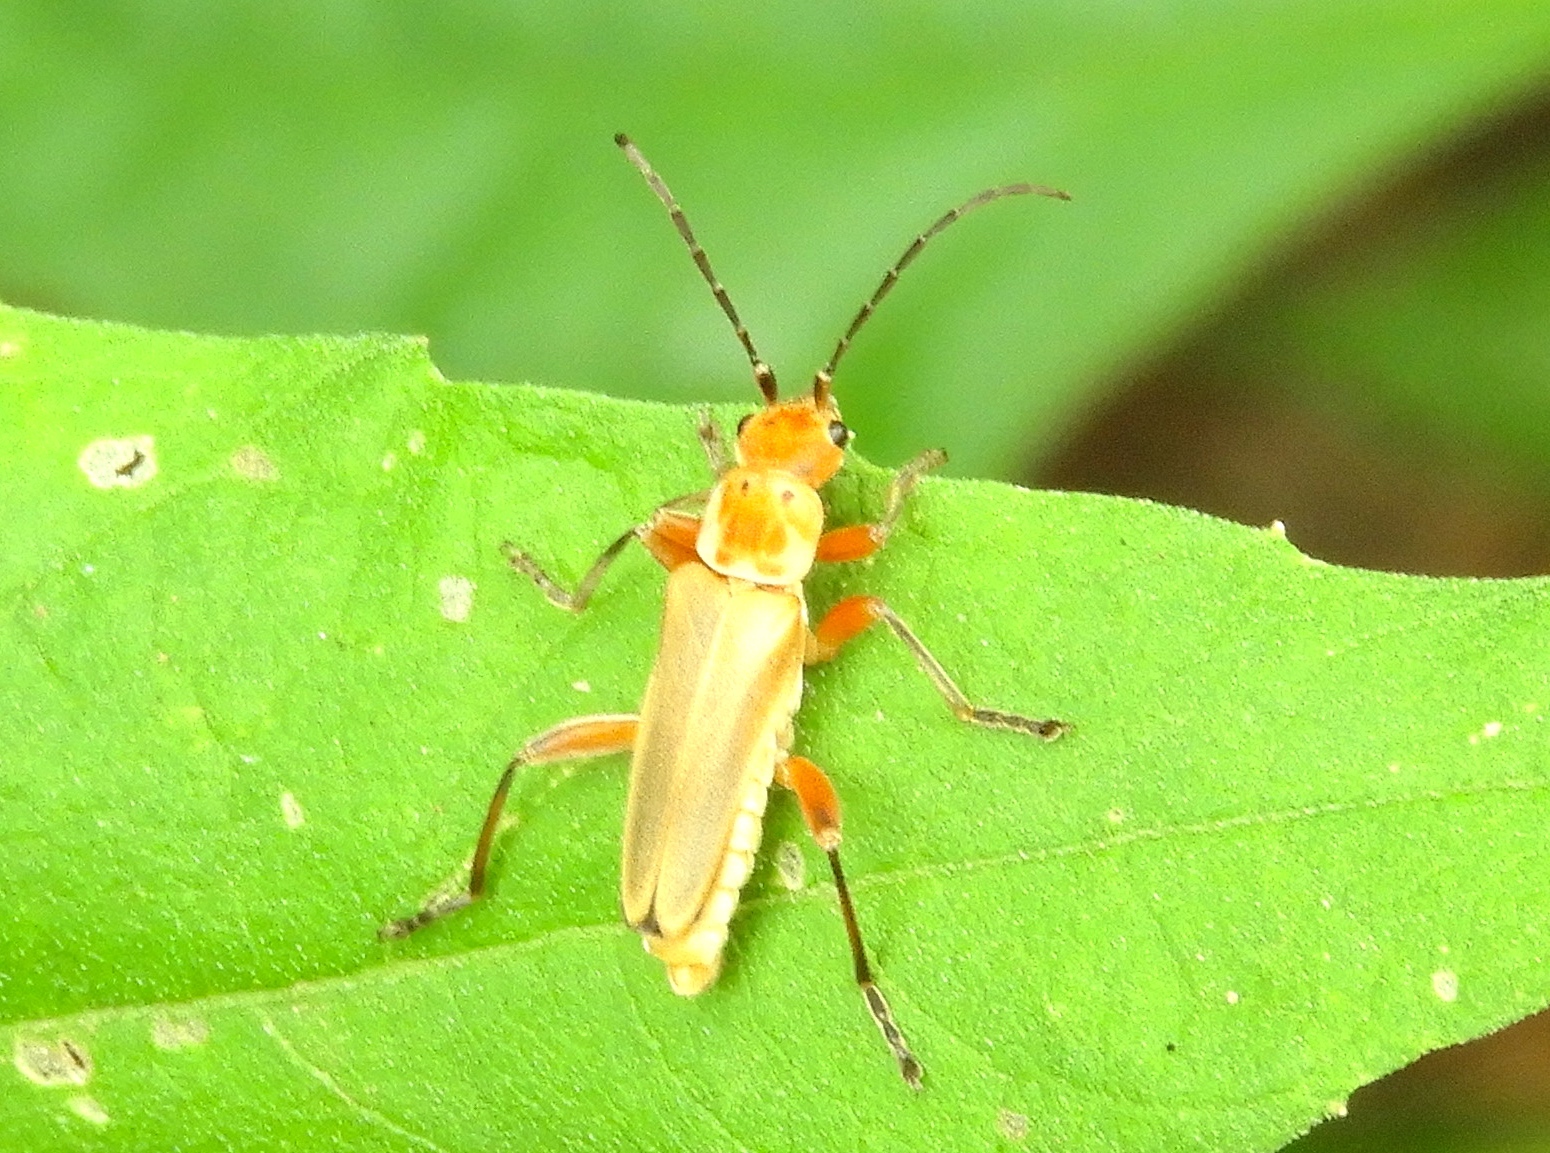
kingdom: Animalia
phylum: Arthropoda
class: Insecta
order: Coleoptera
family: Cantharidae
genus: Chauliognathus
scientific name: Chauliognathus
